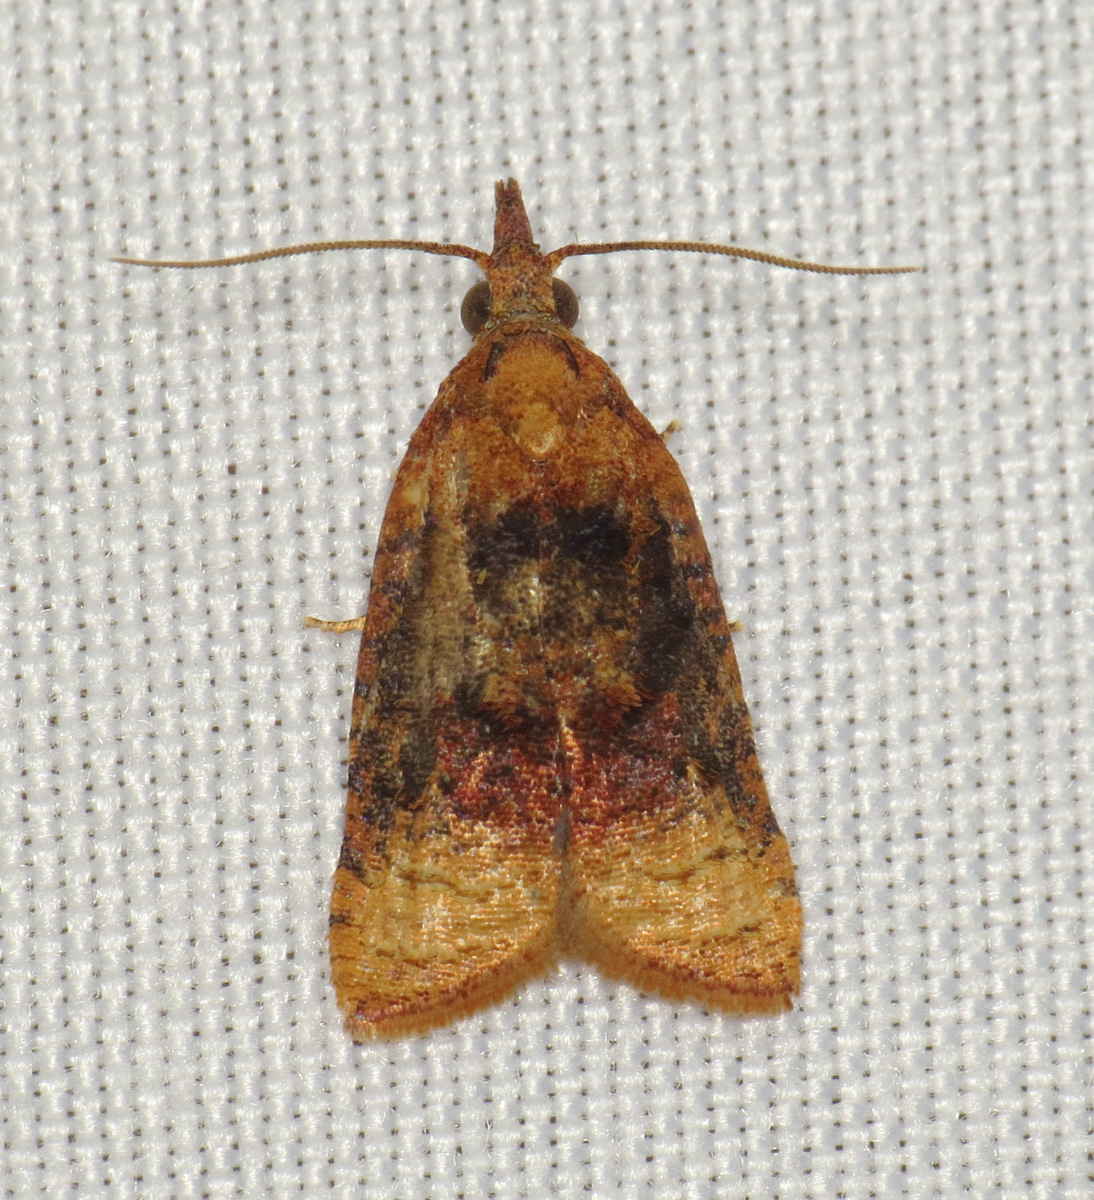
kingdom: Animalia
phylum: Arthropoda
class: Insecta
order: Lepidoptera
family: Tortricidae
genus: Platynota
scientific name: Platynota flavedana
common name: Black-shaded platynota moth
